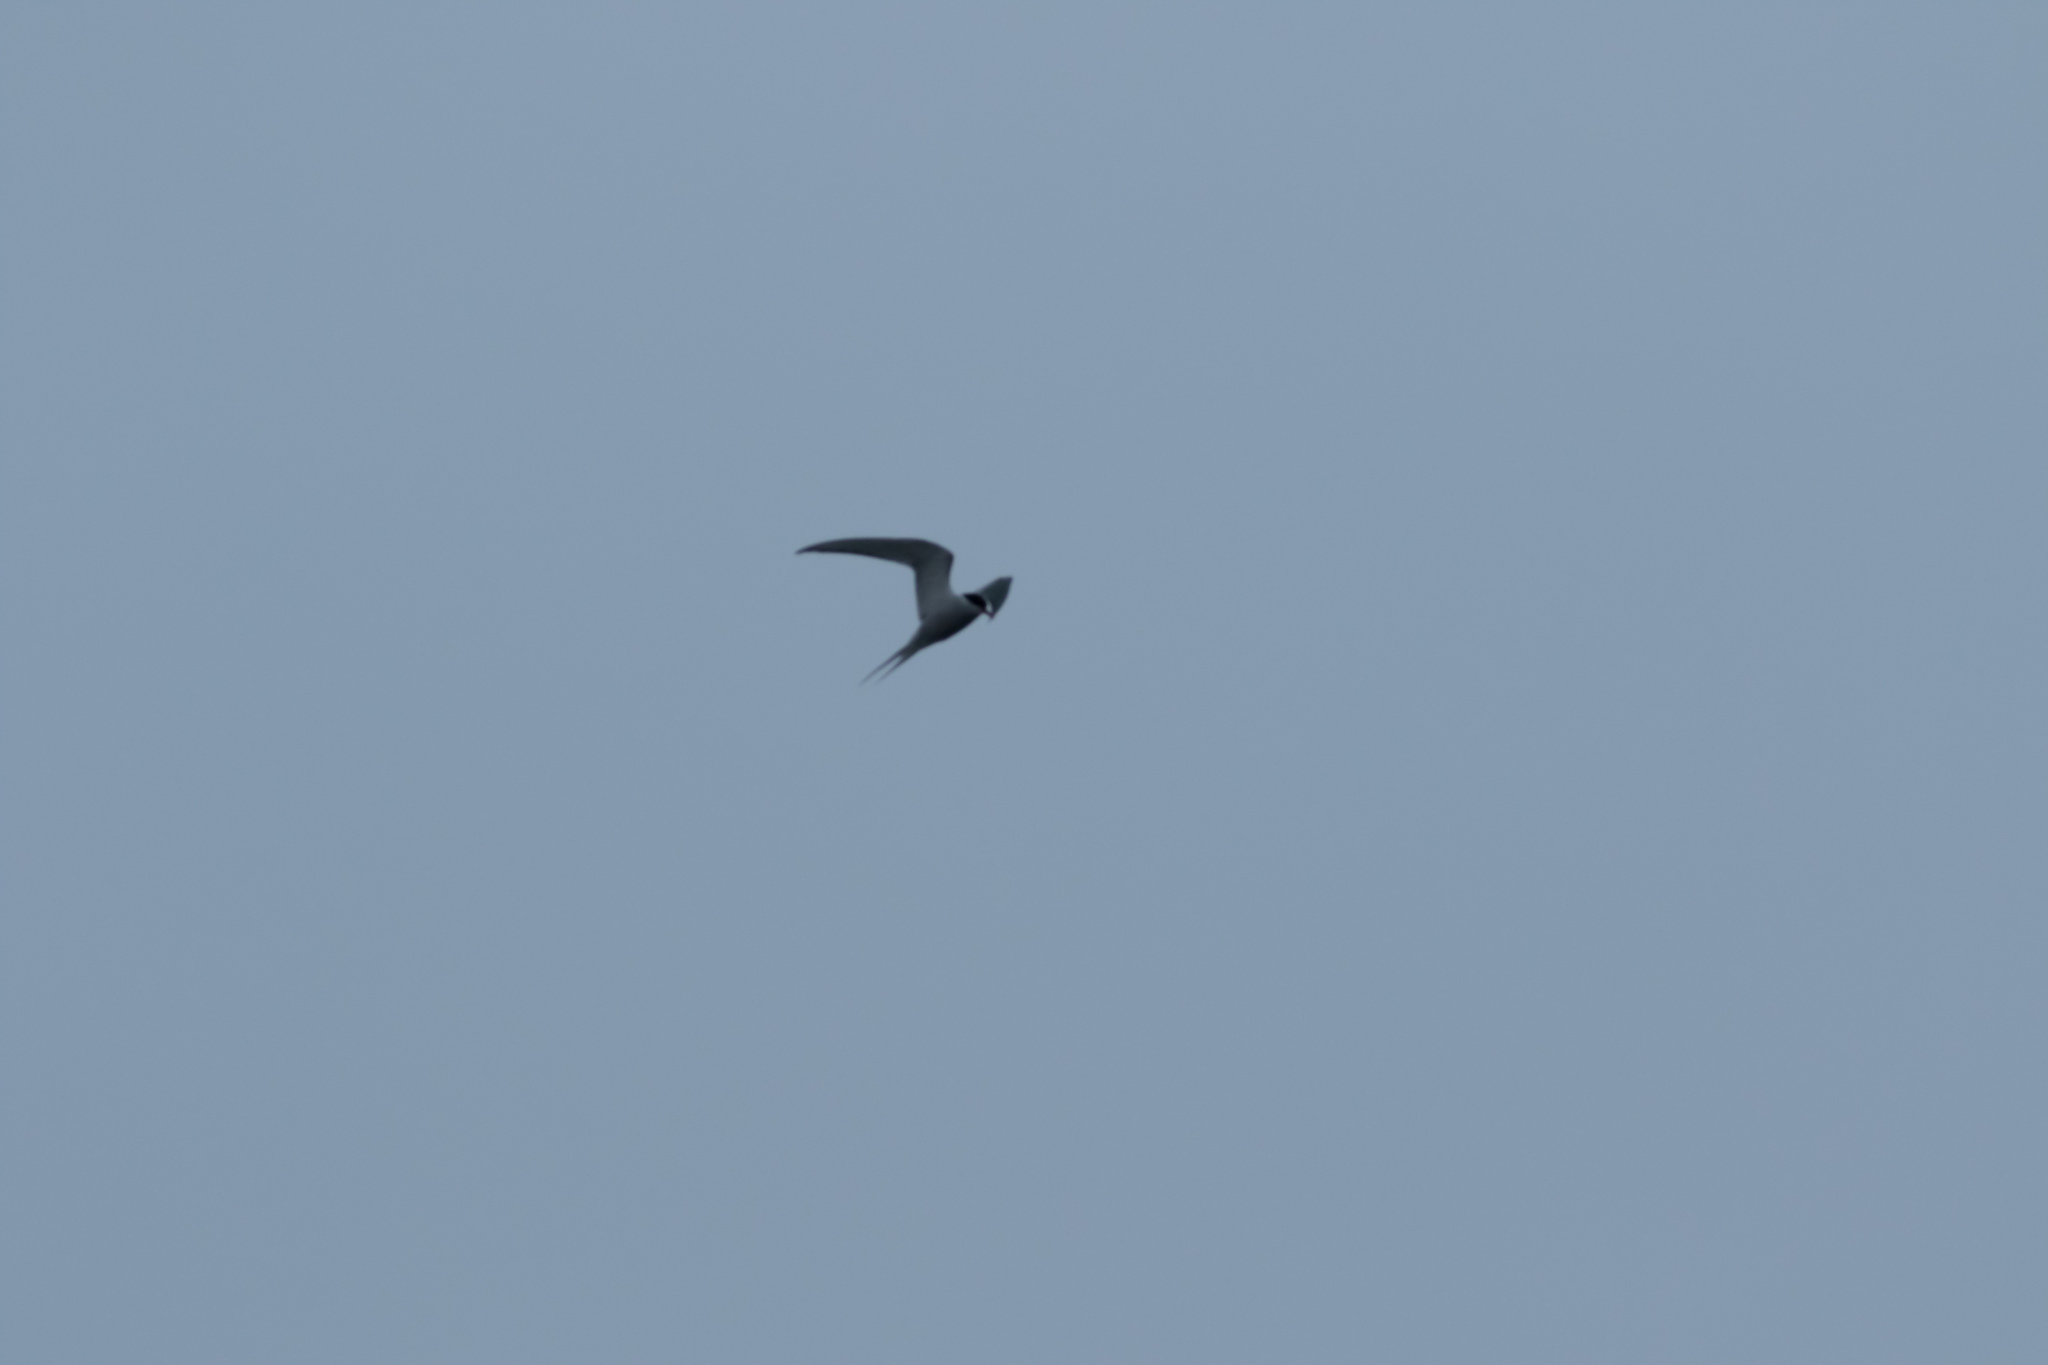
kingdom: Animalia
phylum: Chordata
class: Aves
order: Charadriiformes
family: Laridae
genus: Sterna
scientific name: Sterna paradisaea
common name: Arctic tern
